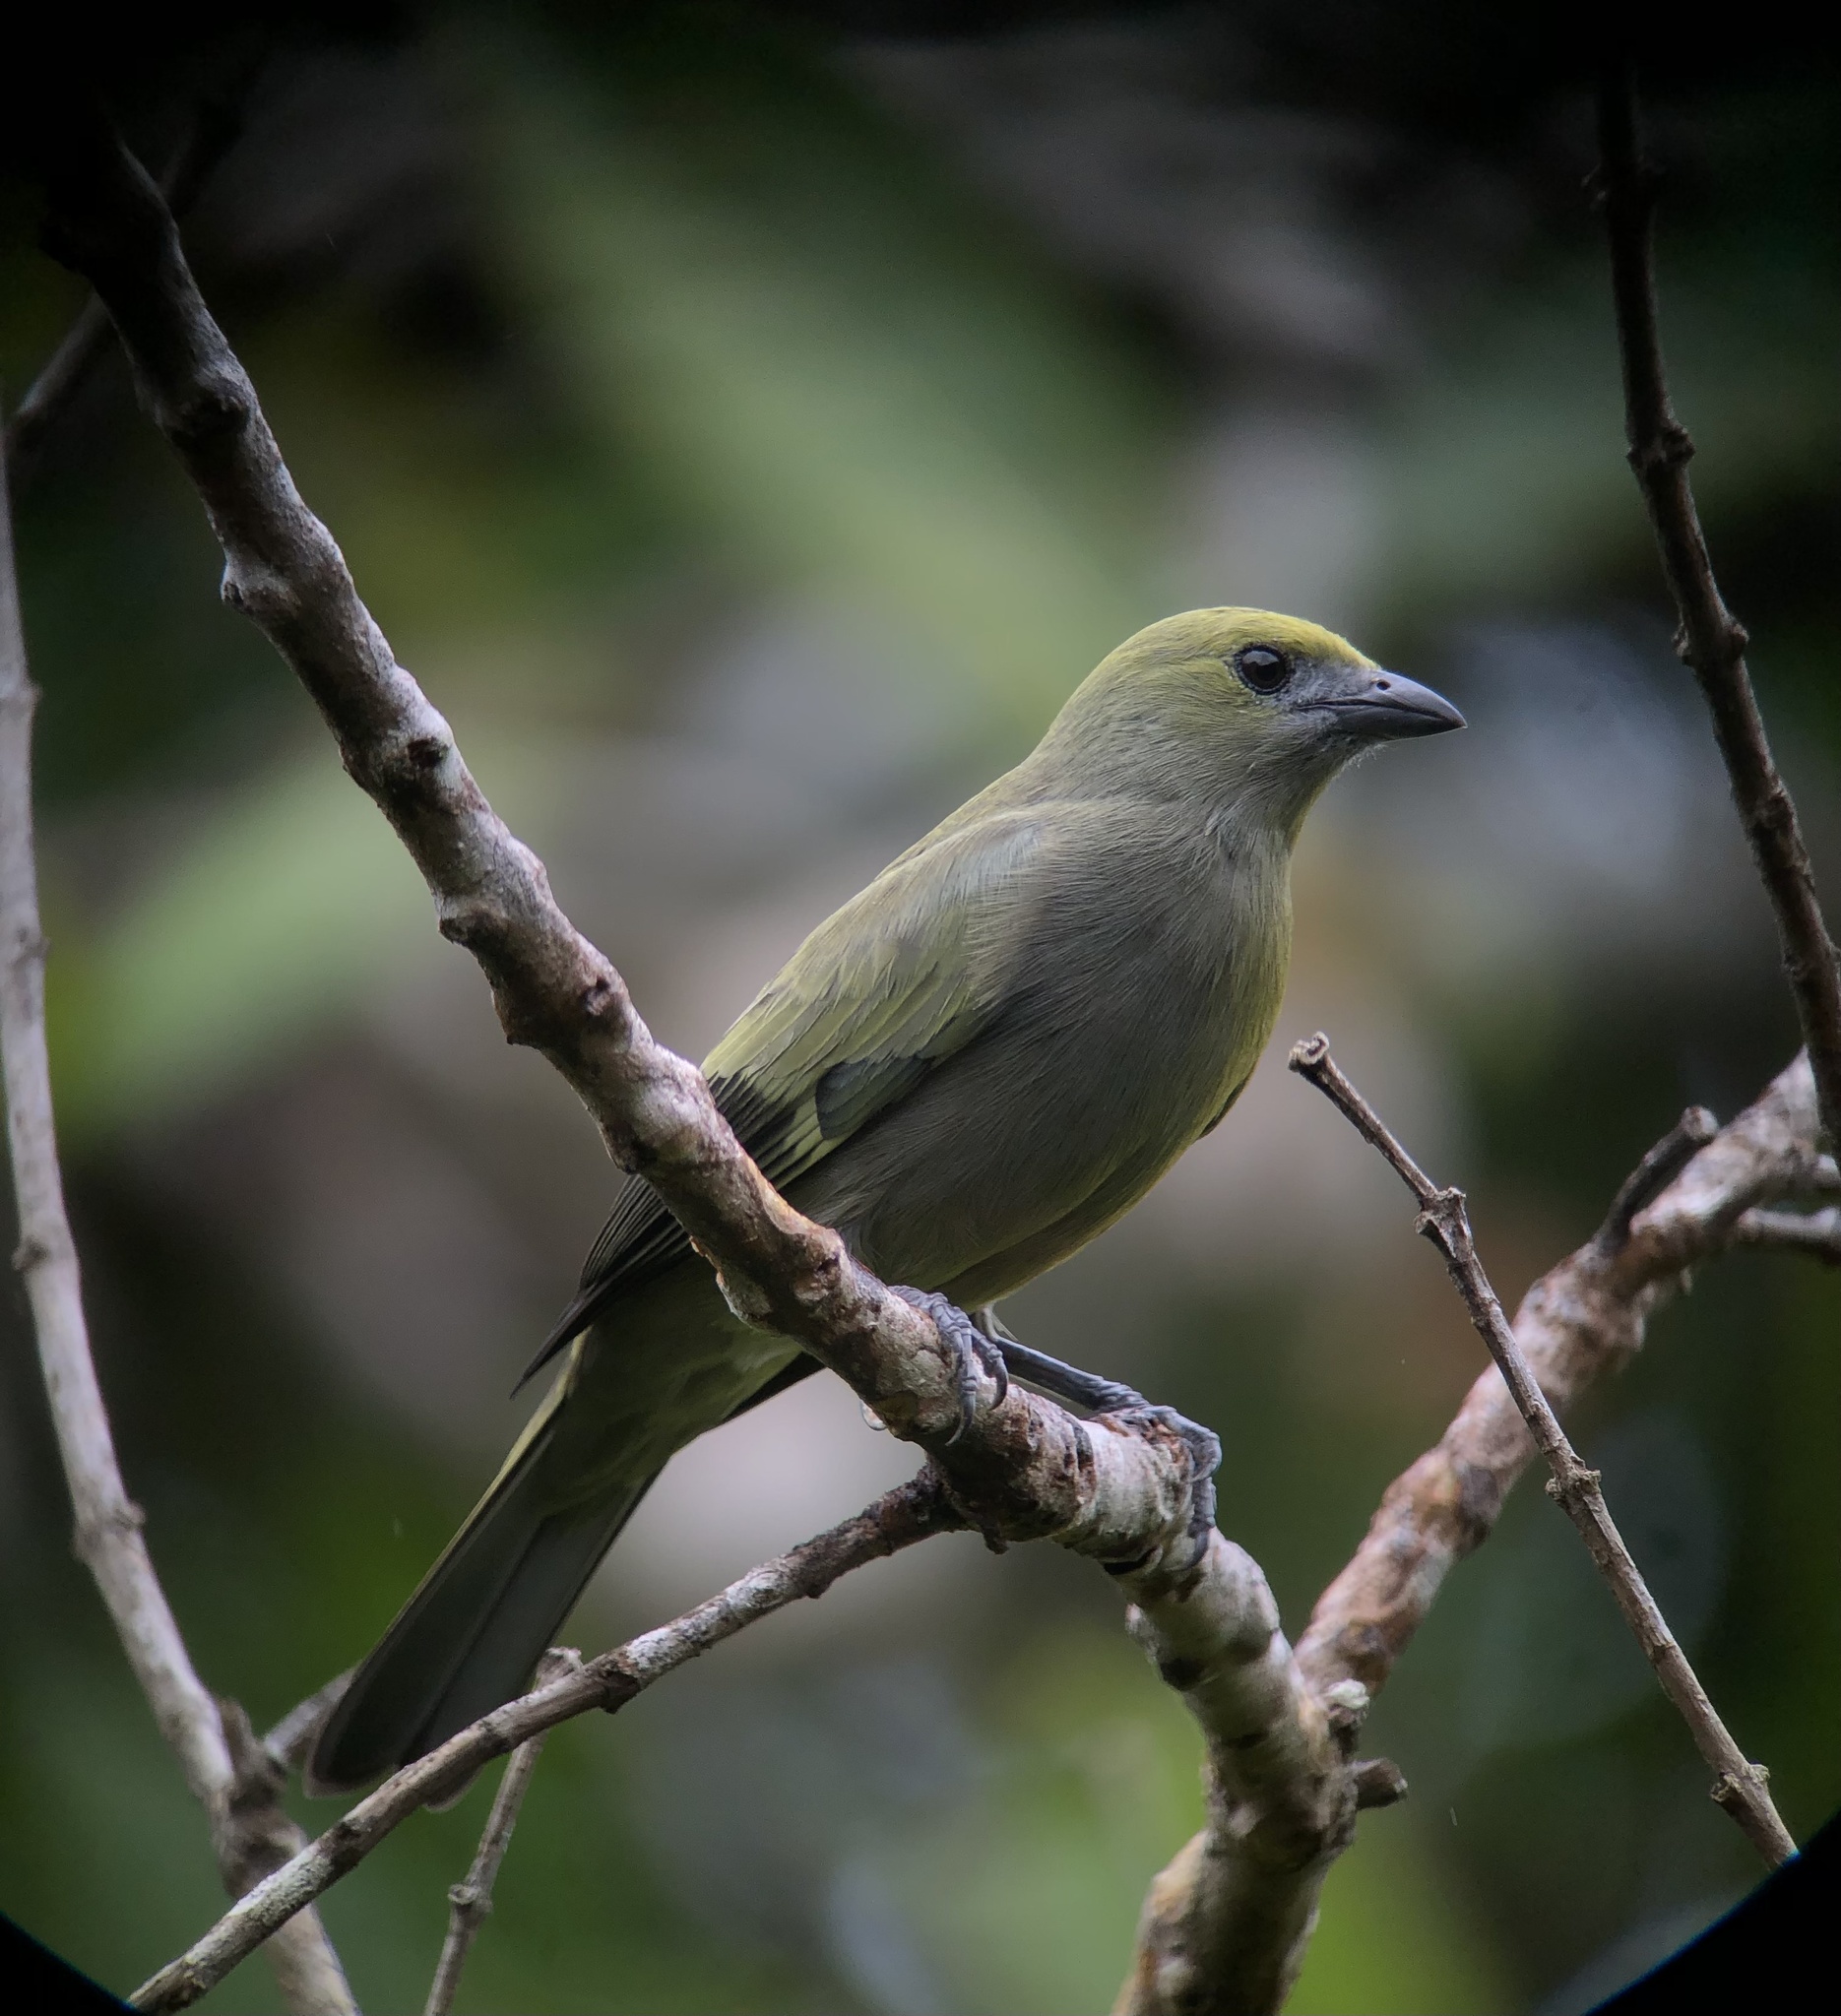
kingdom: Animalia
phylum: Chordata
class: Aves
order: Passeriformes
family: Thraupidae
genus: Thraupis
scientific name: Thraupis palmarum
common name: Palm tanager
